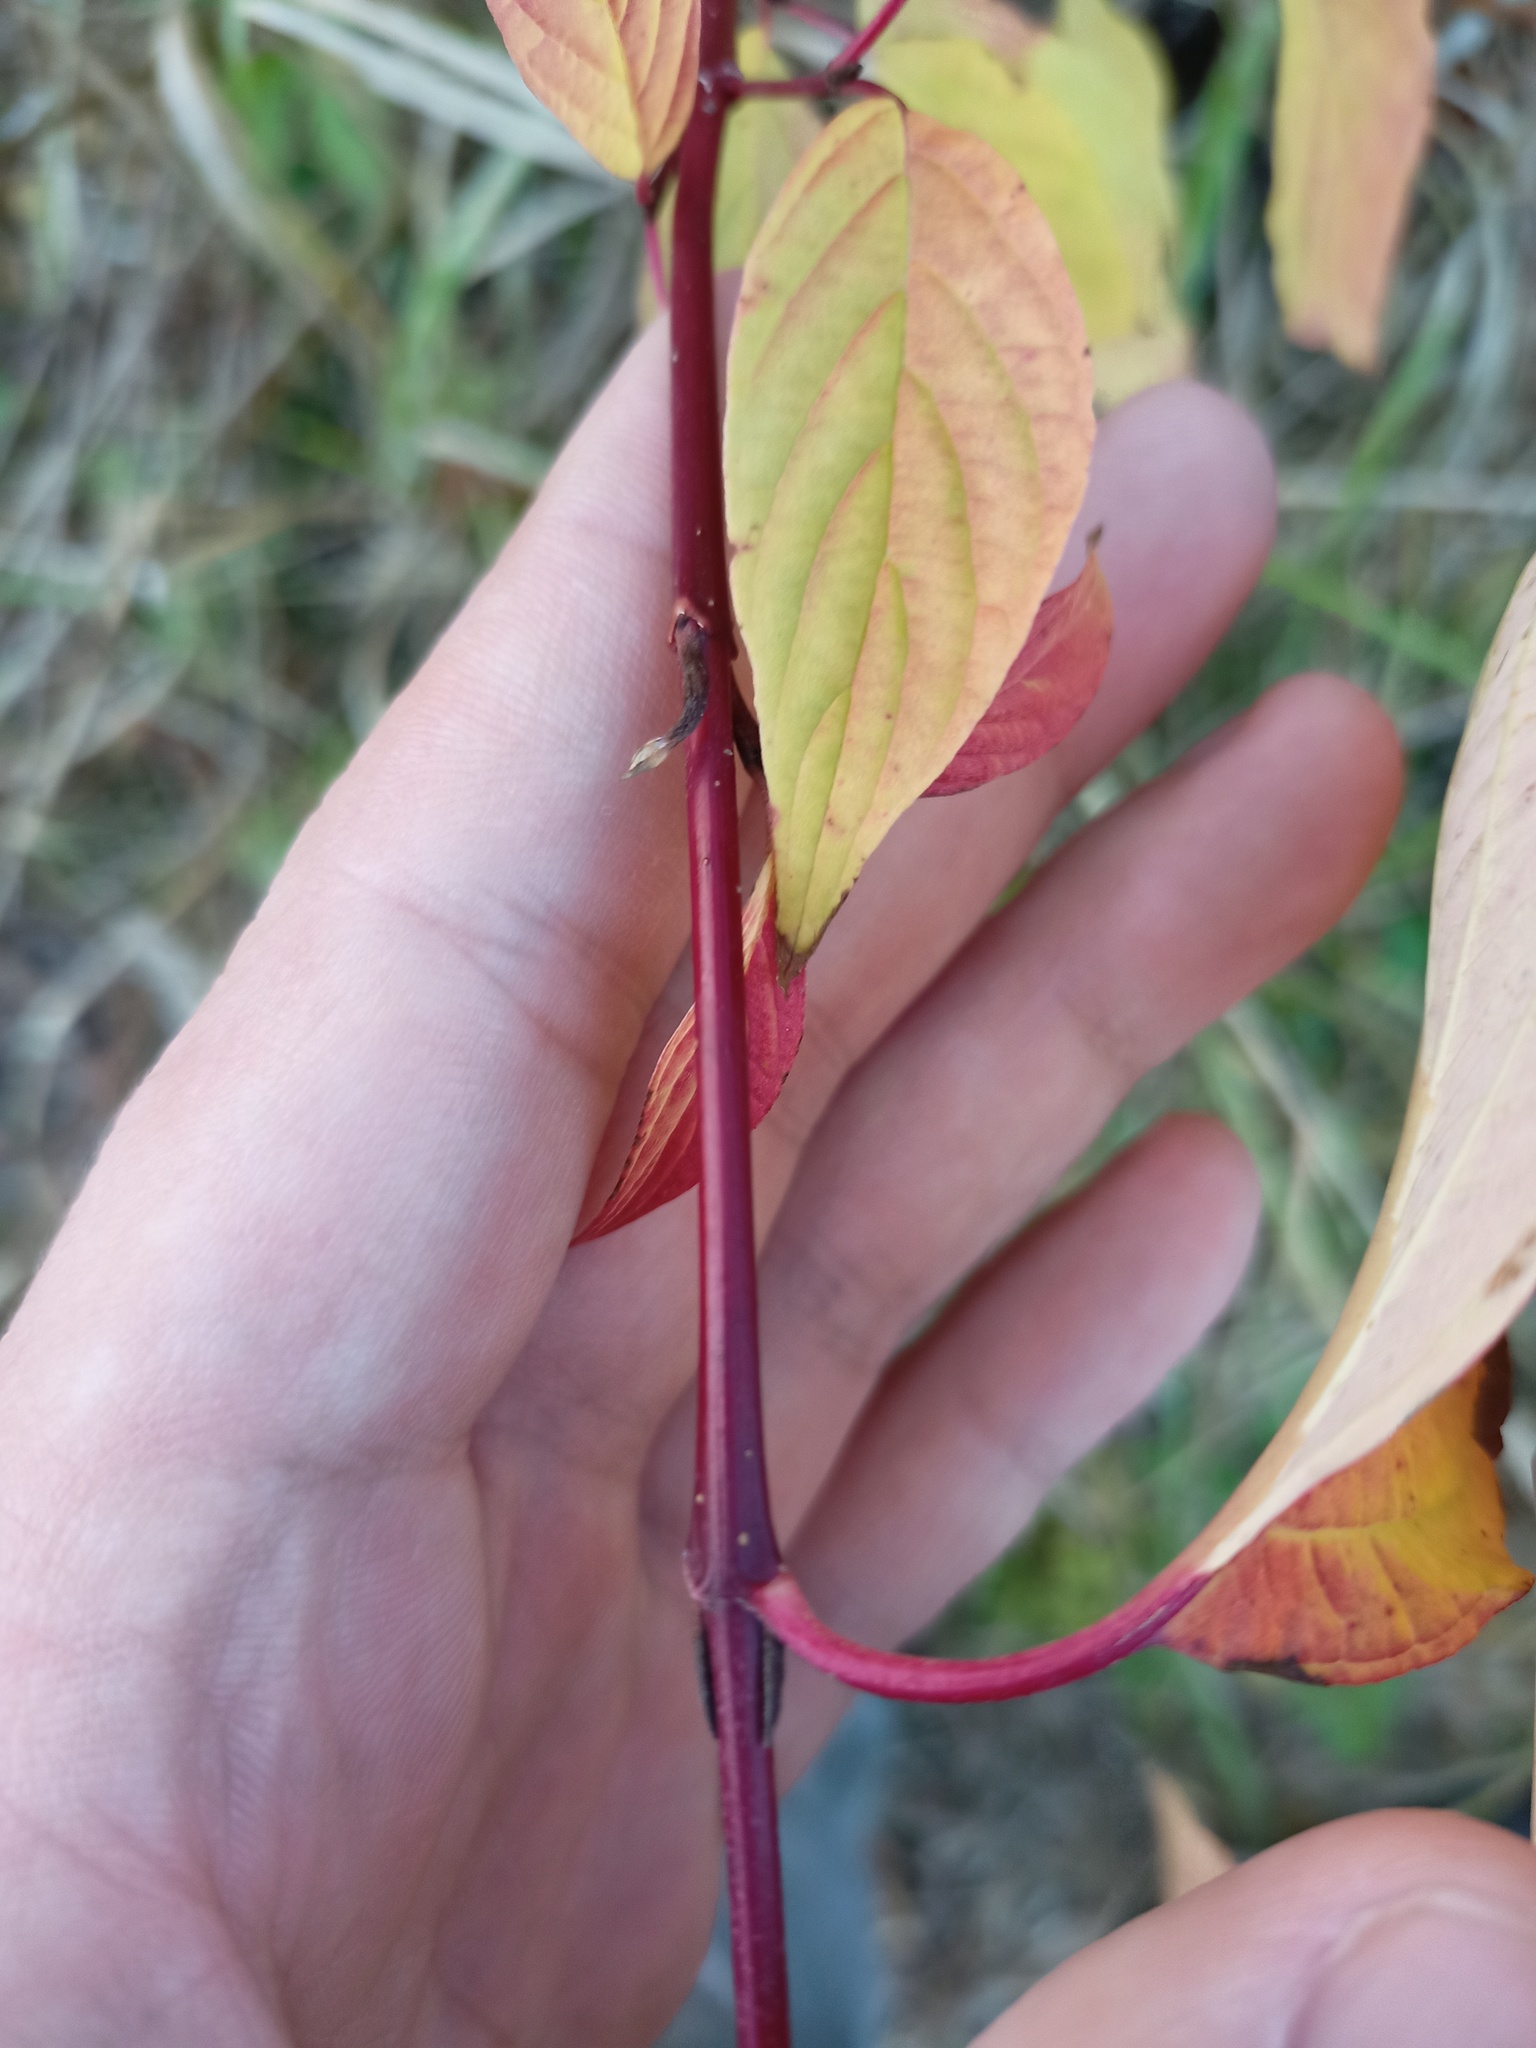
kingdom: Plantae
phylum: Tracheophyta
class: Magnoliopsida
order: Cornales
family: Cornaceae
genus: Cornus
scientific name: Cornus sericea
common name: Red-osier dogwood
